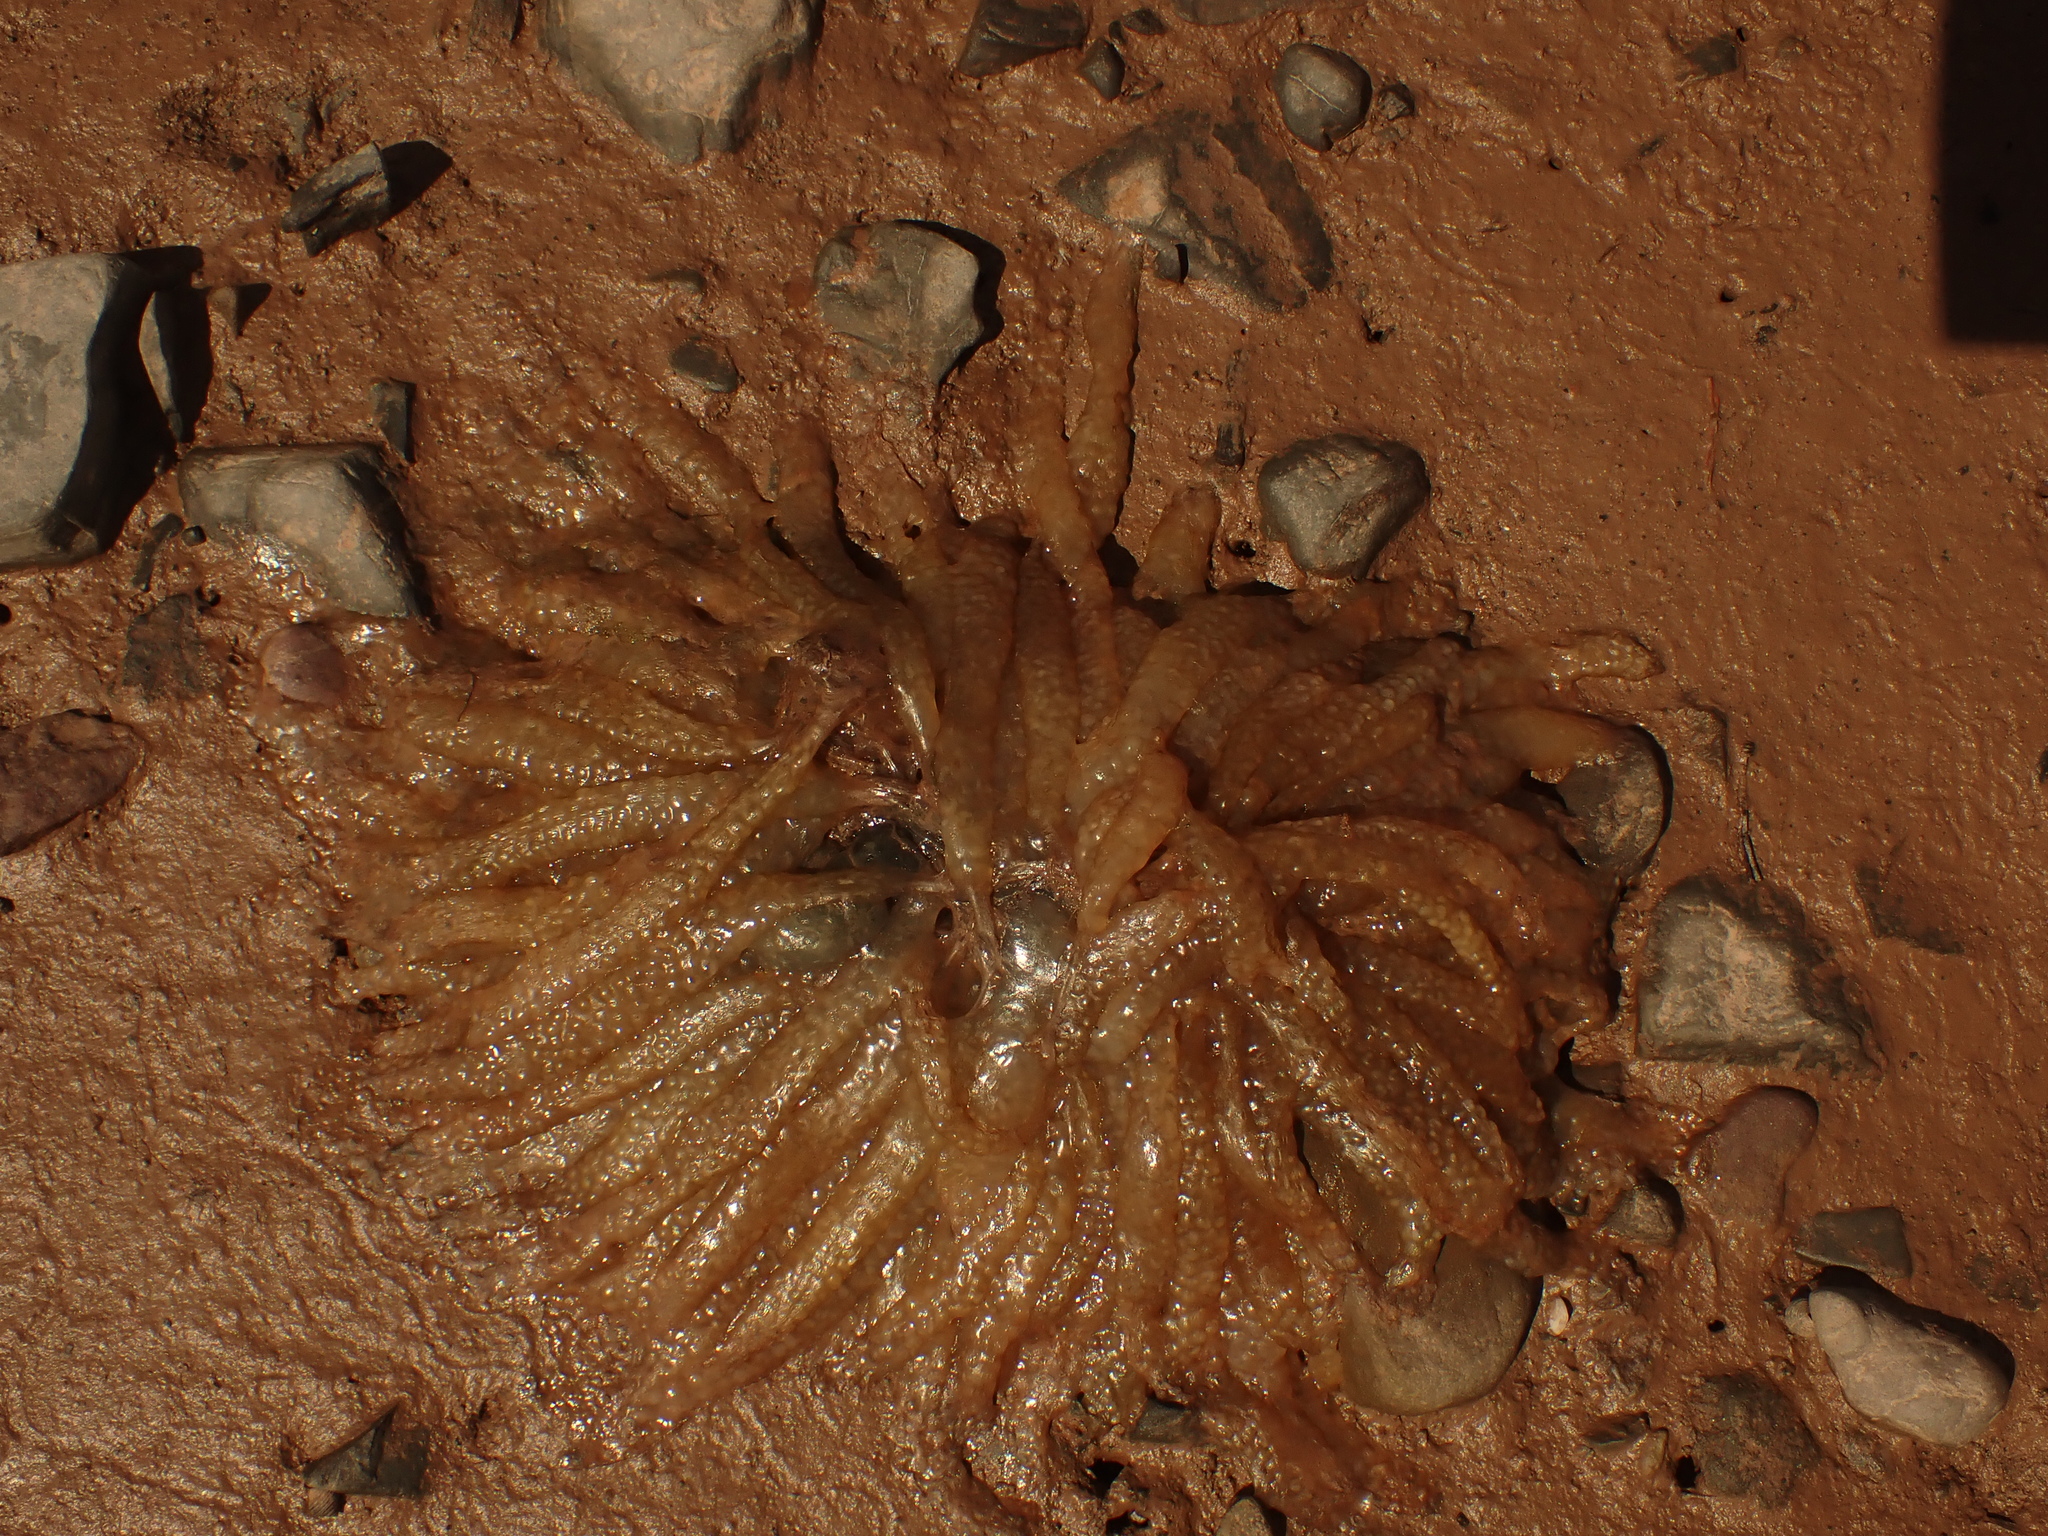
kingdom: Animalia
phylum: Mollusca
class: Cephalopoda
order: Myopsida
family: Loliginidae
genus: Doryteuthis
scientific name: Doryteuthis pealeii
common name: Long-finned inshore squid
